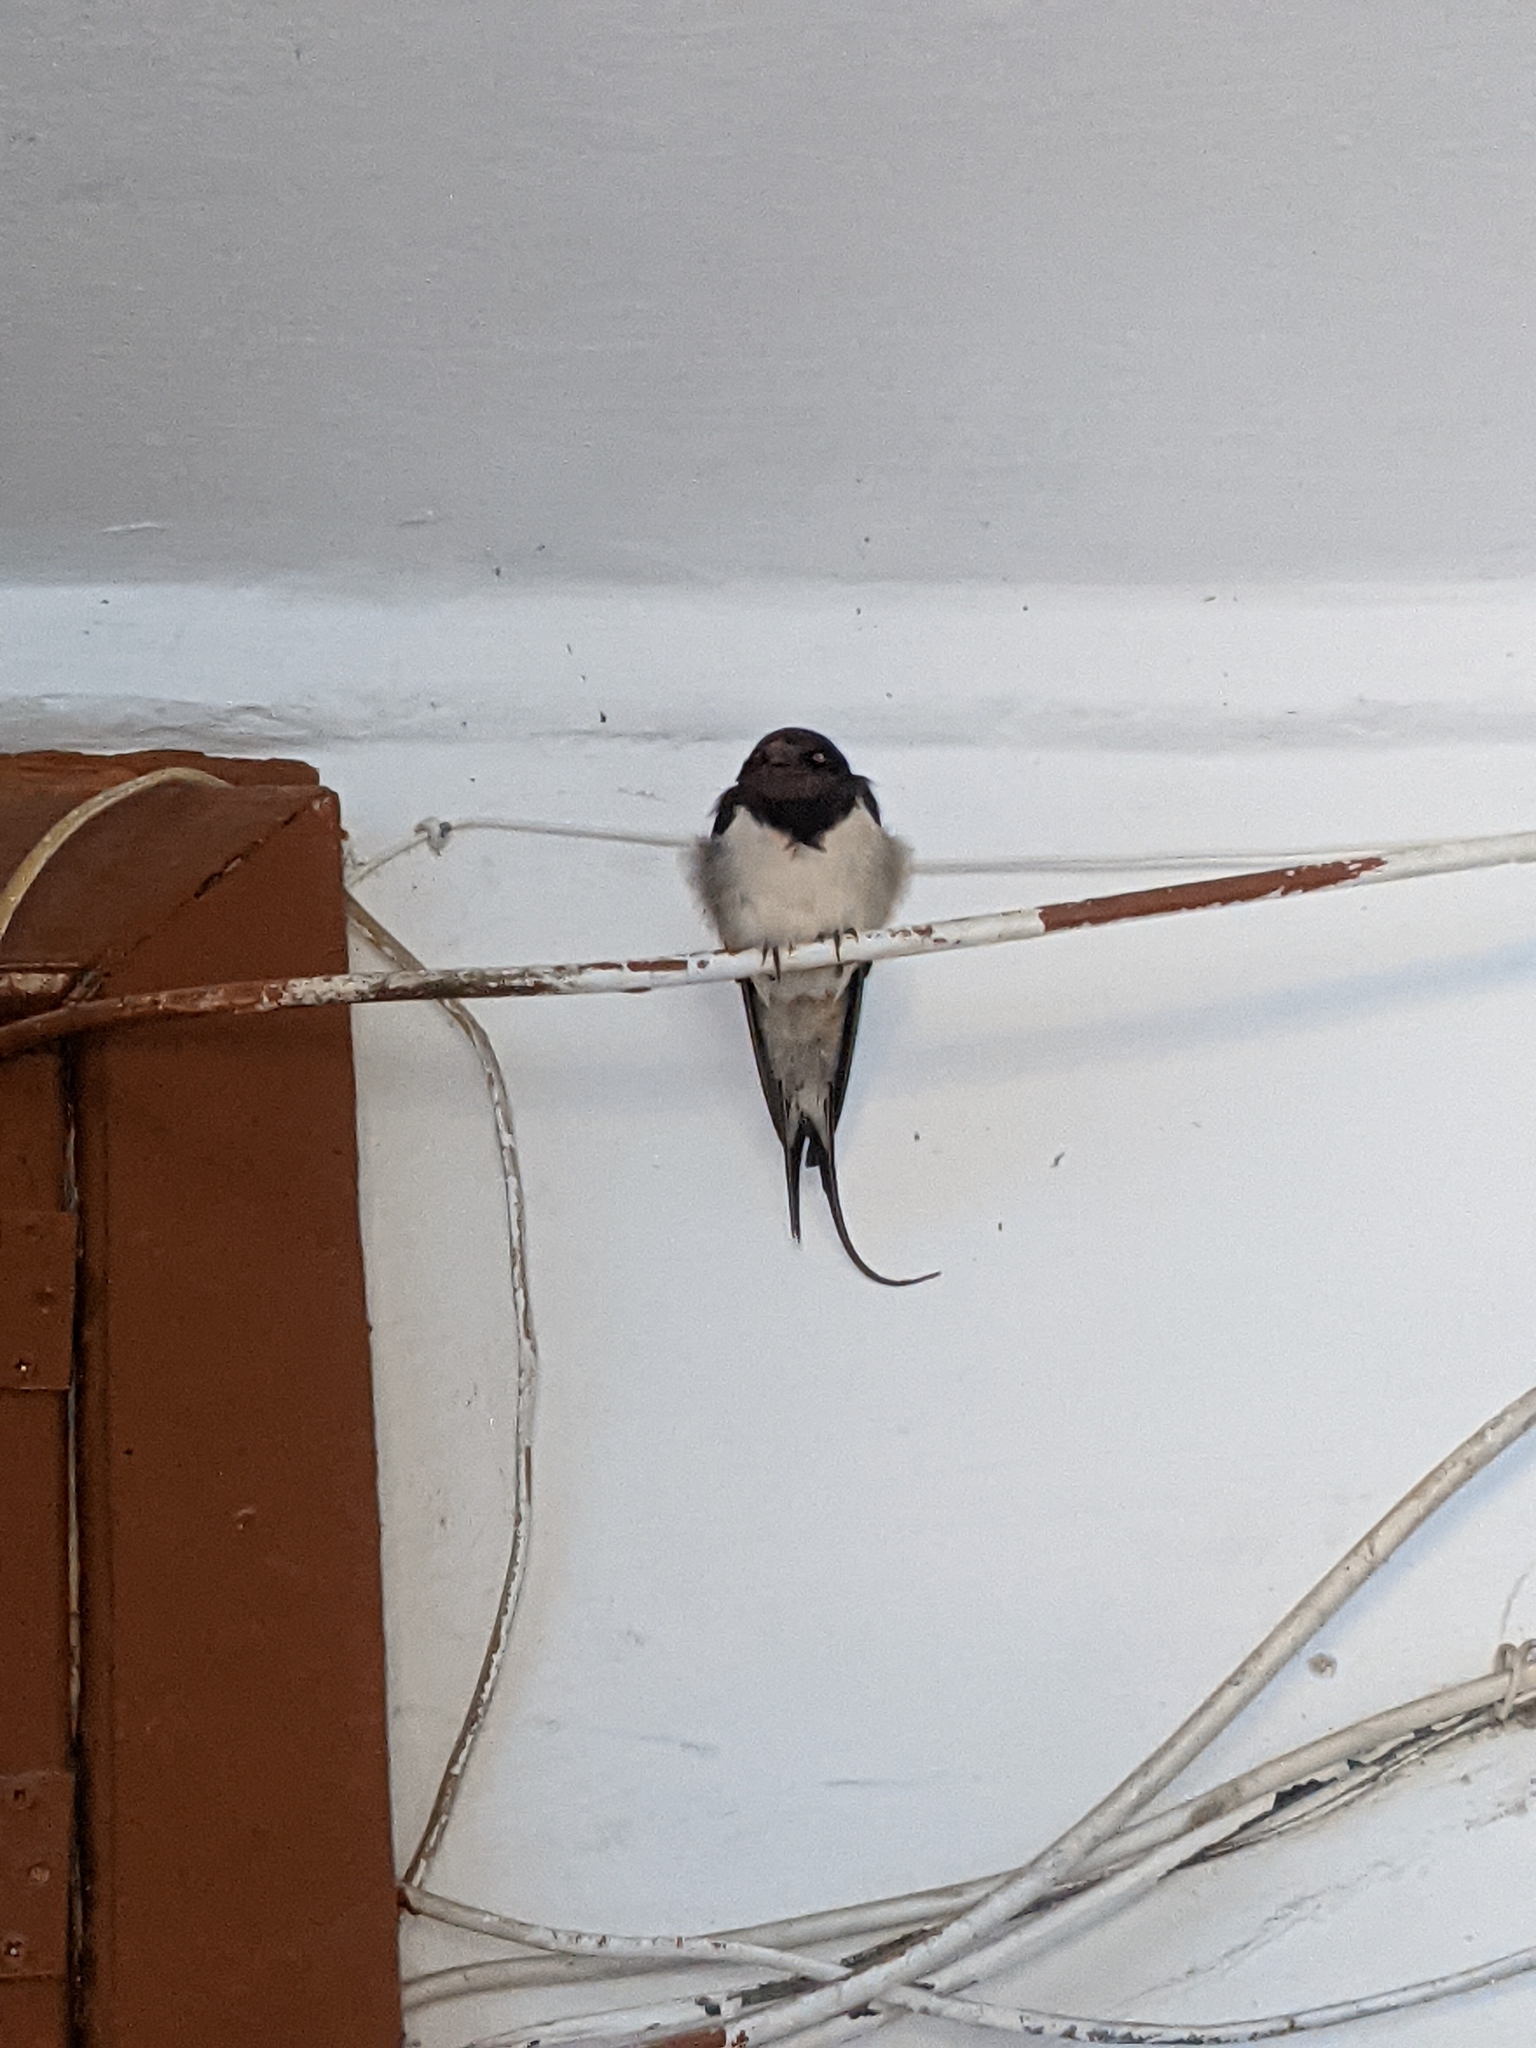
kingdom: Animalia
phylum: Chordata
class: Aves
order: Passeriformes
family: Hirundinidae
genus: Hirundo
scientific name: Hirundo rustica
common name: Barn swallow
